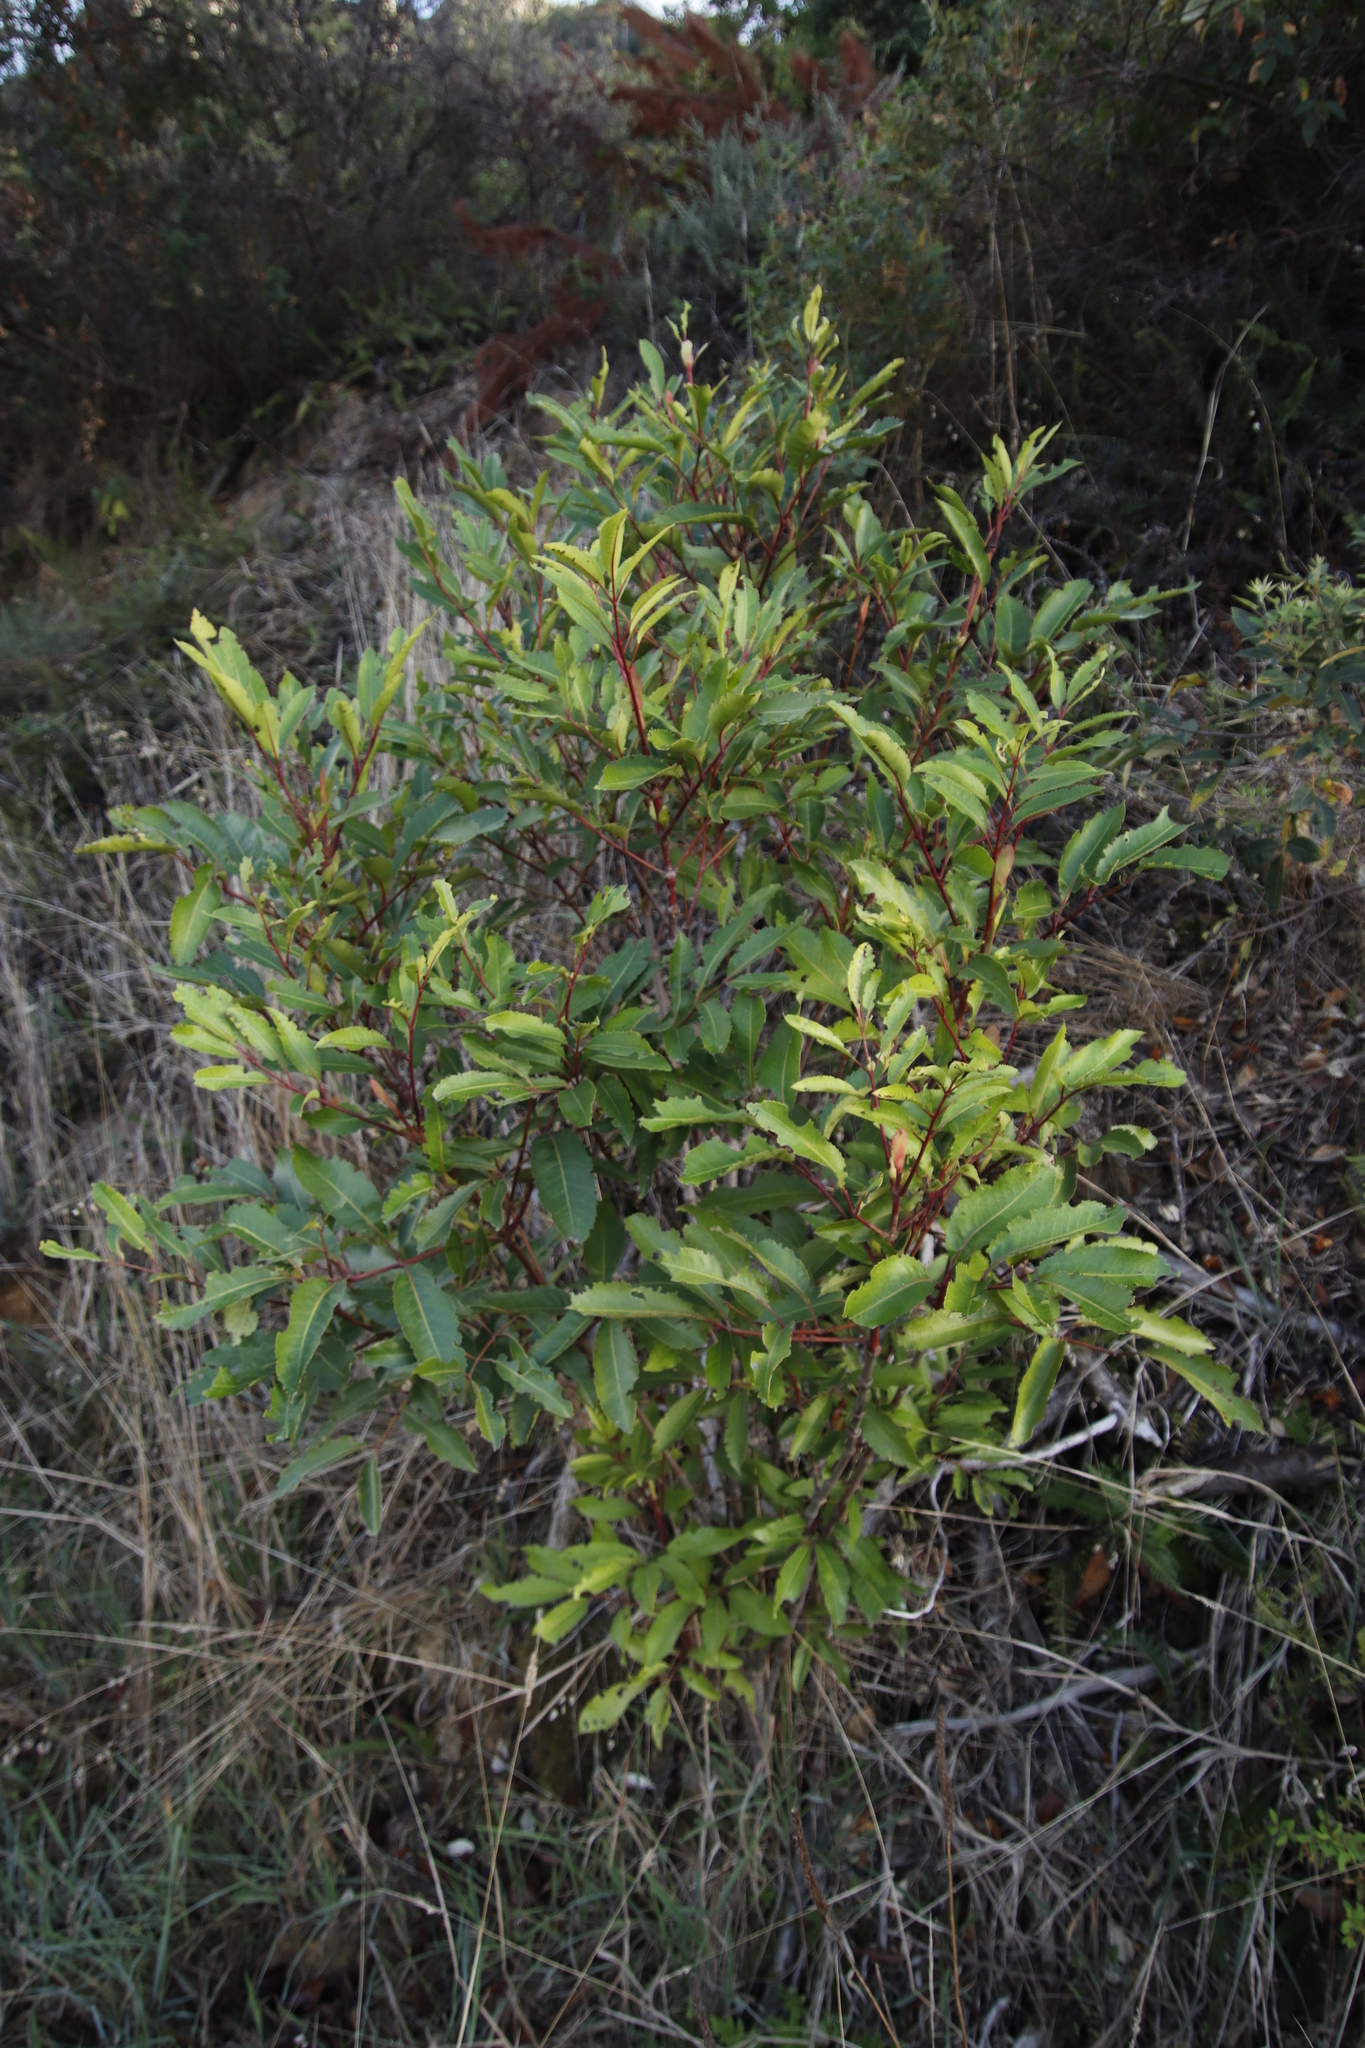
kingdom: Plantae
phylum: Tracheophyta
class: Magnoliopsida
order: Oxalidales
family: Cunoniaceae
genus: Cunonia
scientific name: Cunonia capensis
